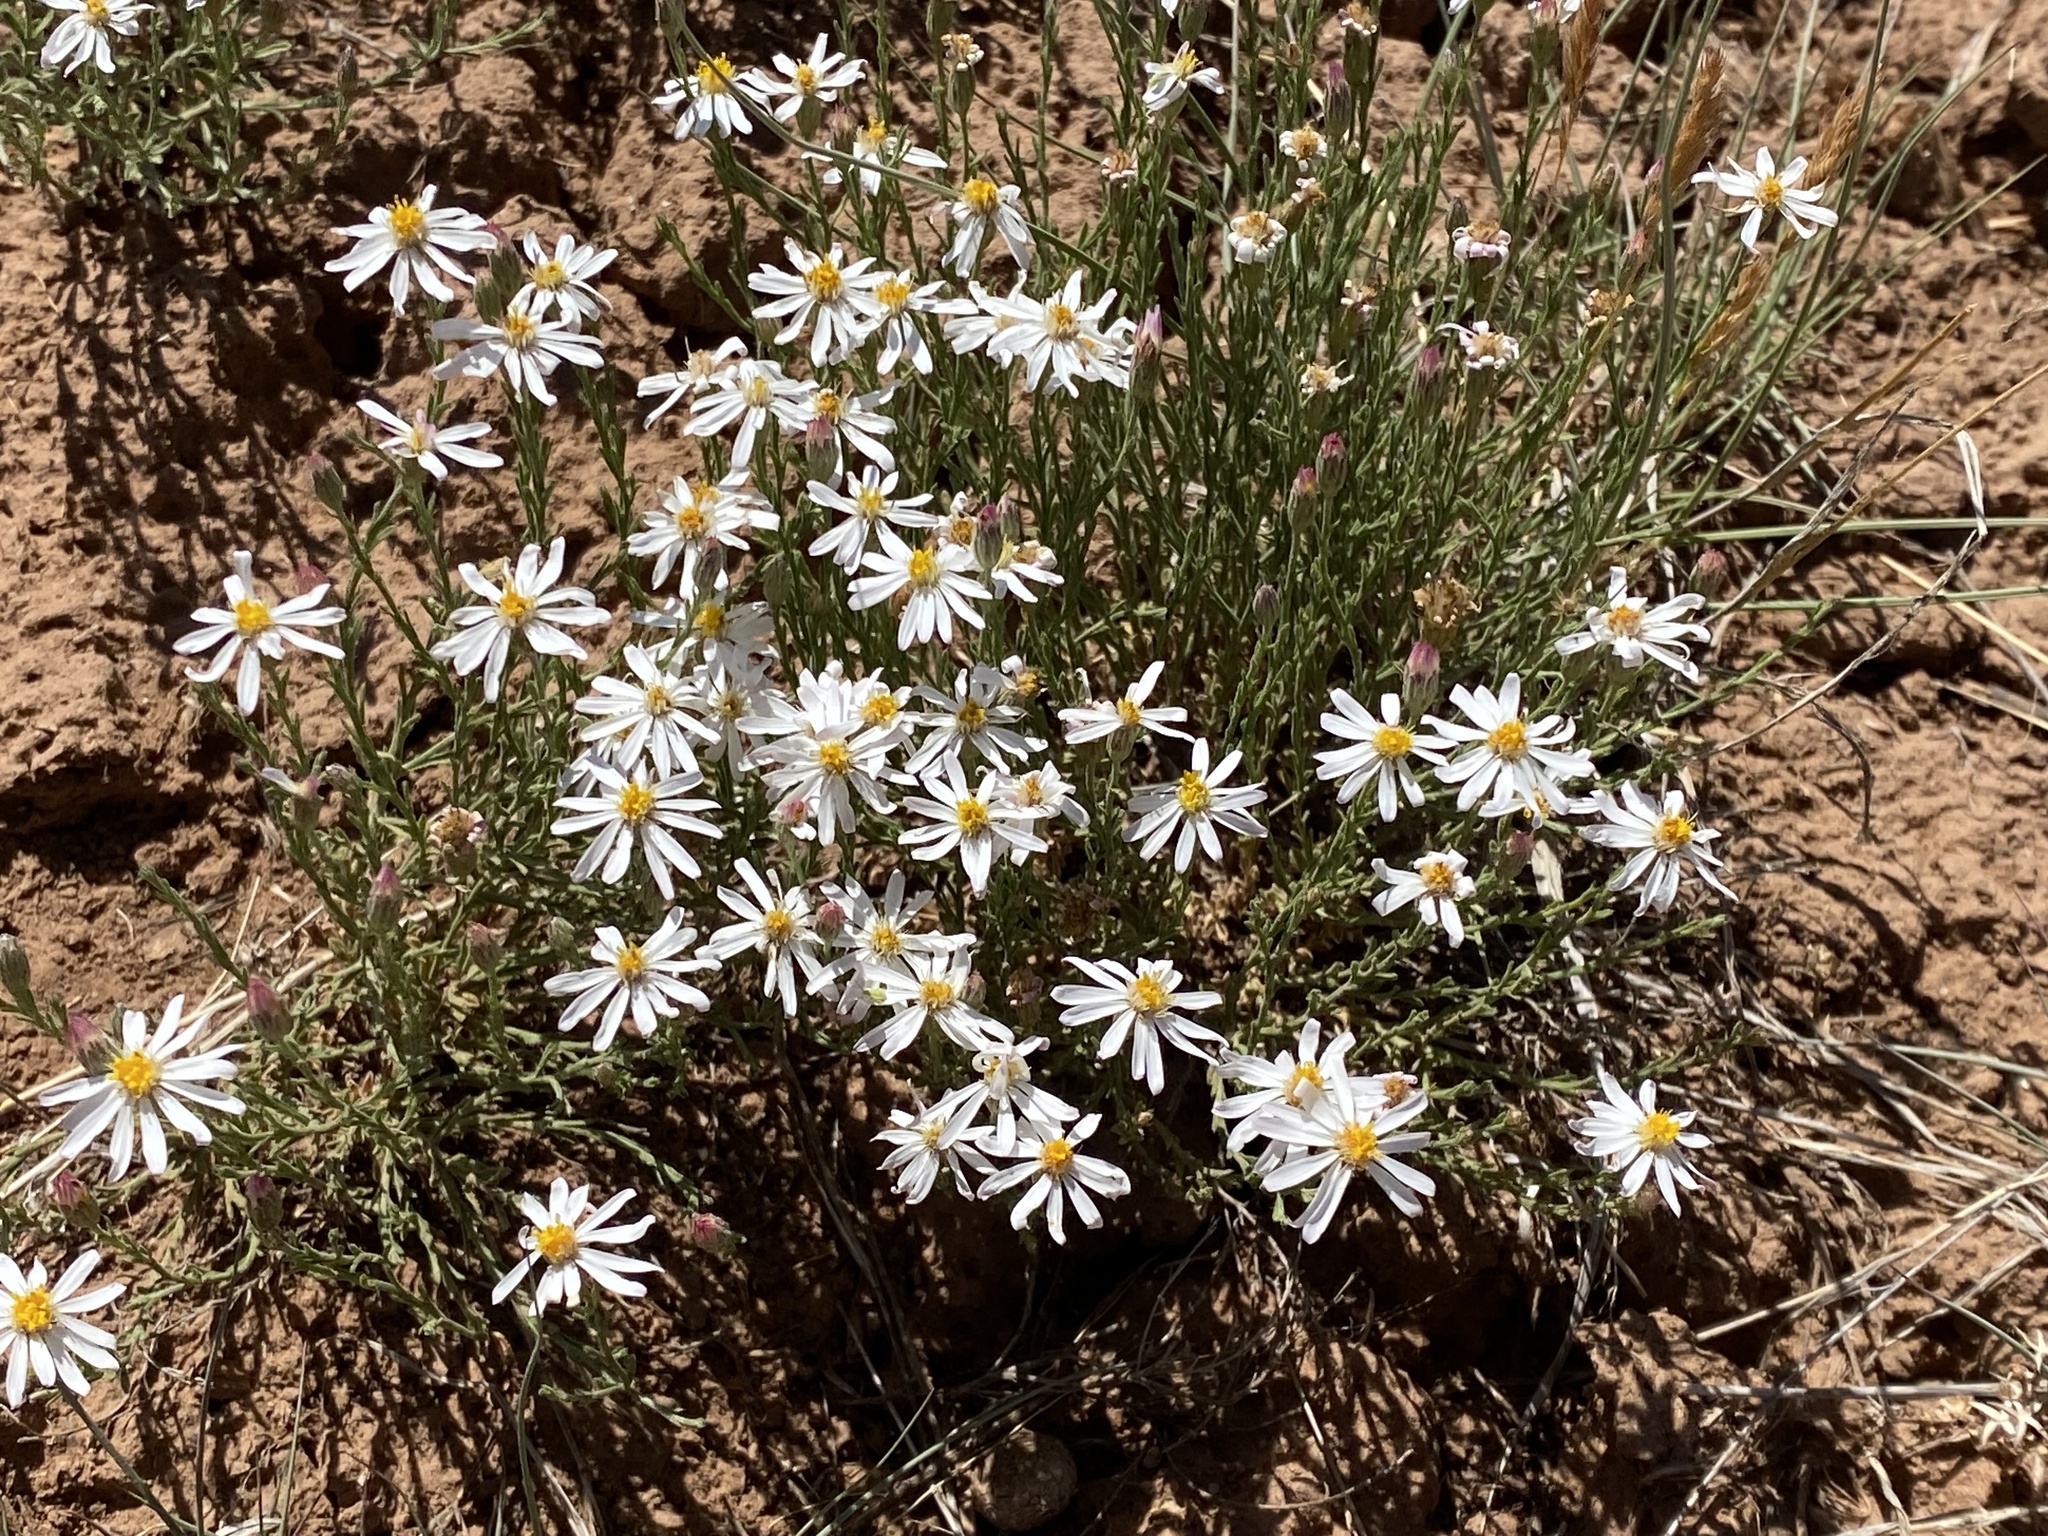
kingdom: Plantae
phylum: Tracheophyta
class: Magnoliopsida
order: Asterales
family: Asteraceae
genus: Chaetopappa
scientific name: Chaetopappa ericoides
